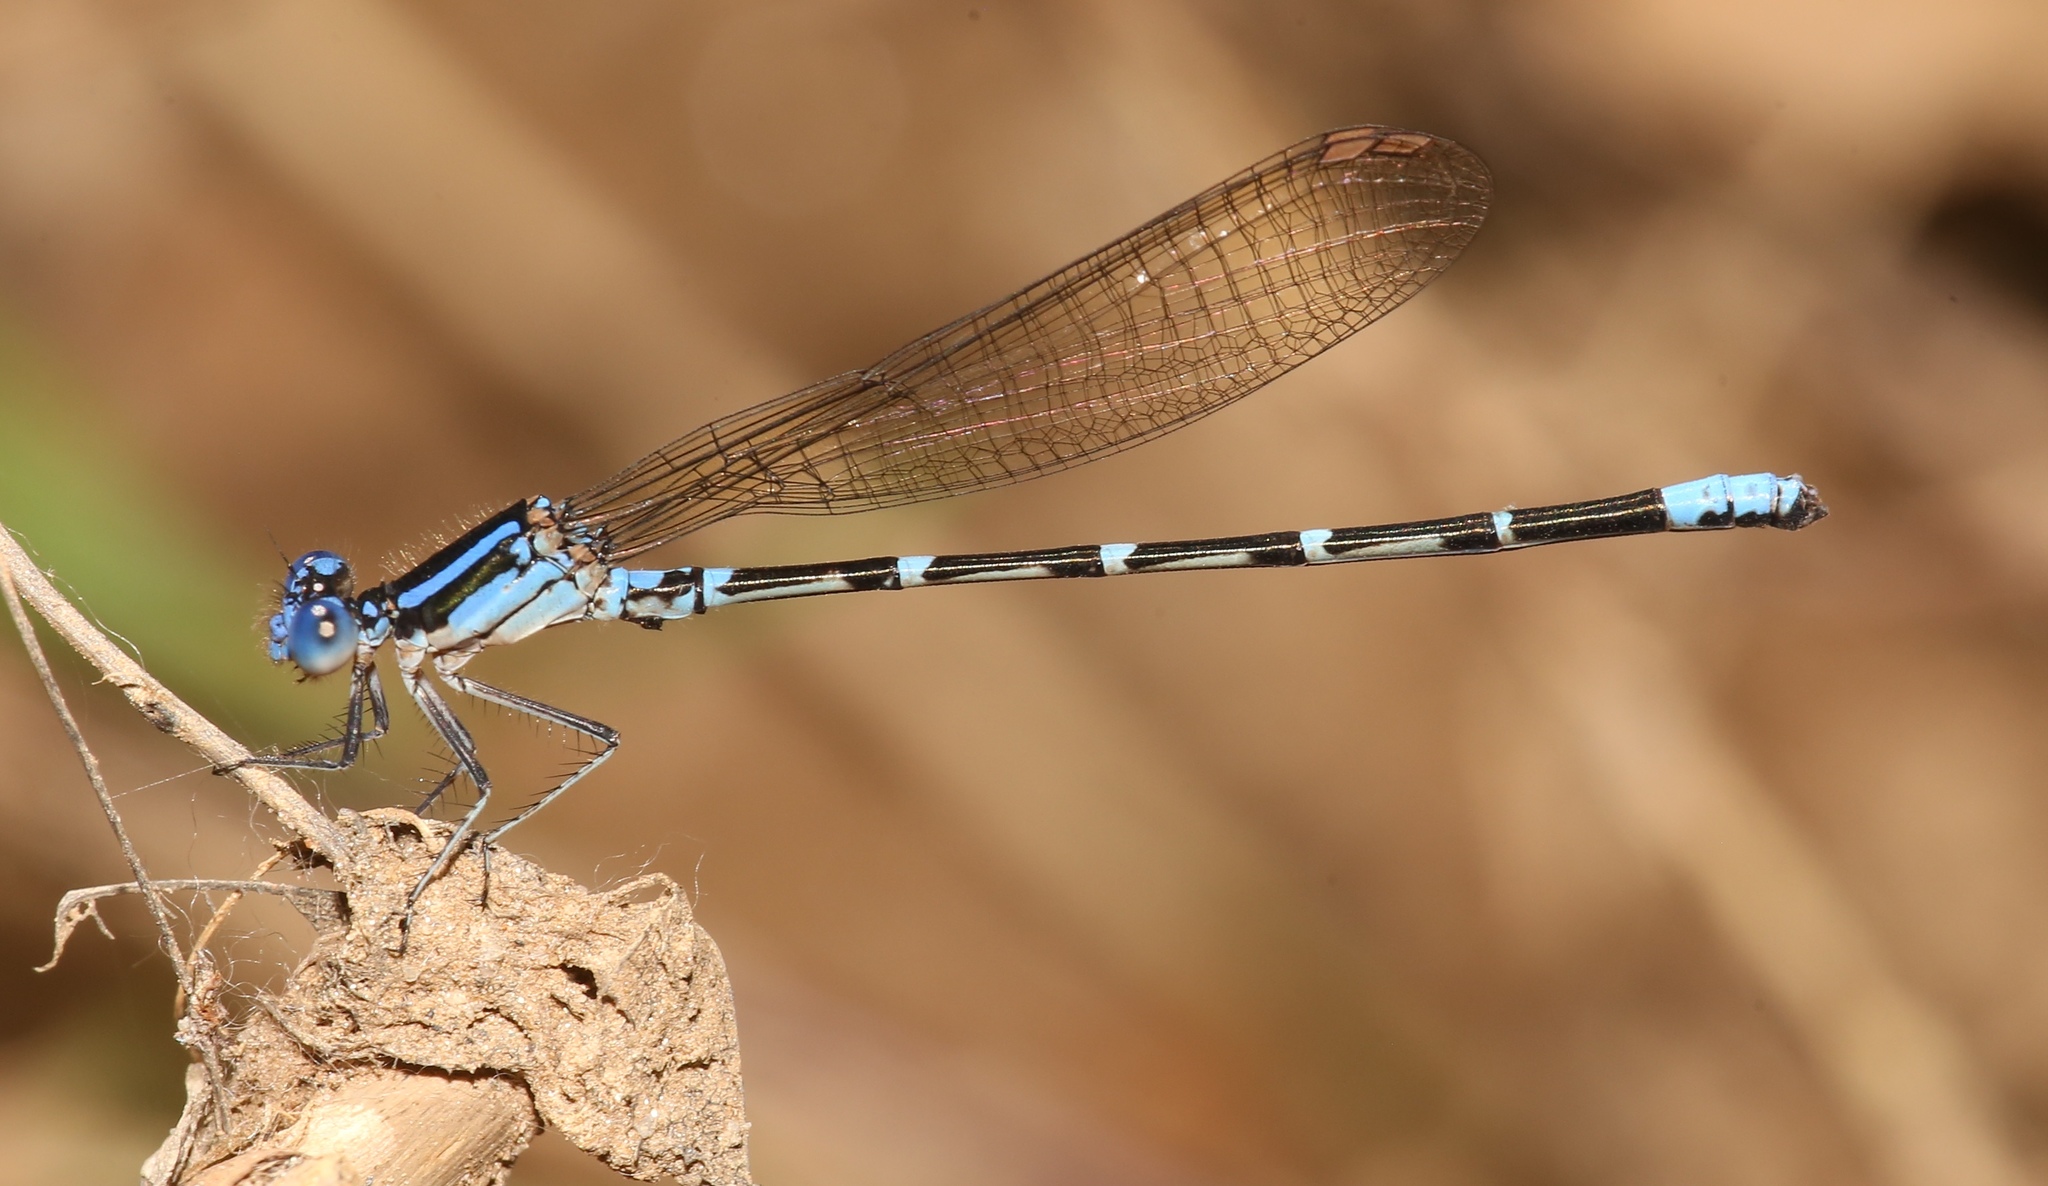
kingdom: Animalia
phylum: Arthropoda
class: Insecta
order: Odonata
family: Coenagrionidae
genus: Argia
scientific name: Argia sedula
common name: Blue-ringed dancer
